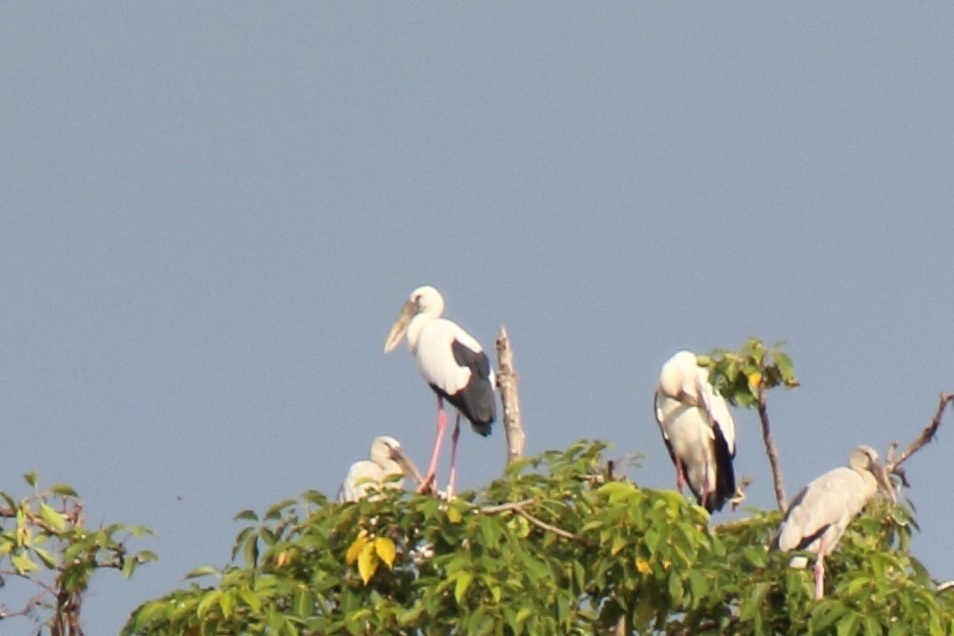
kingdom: Animalia
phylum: Chordata
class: Aves
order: Ciconiiformes
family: Ciconiidae
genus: Anastomus
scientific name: Anastomus oscitans
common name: Asian openbill
